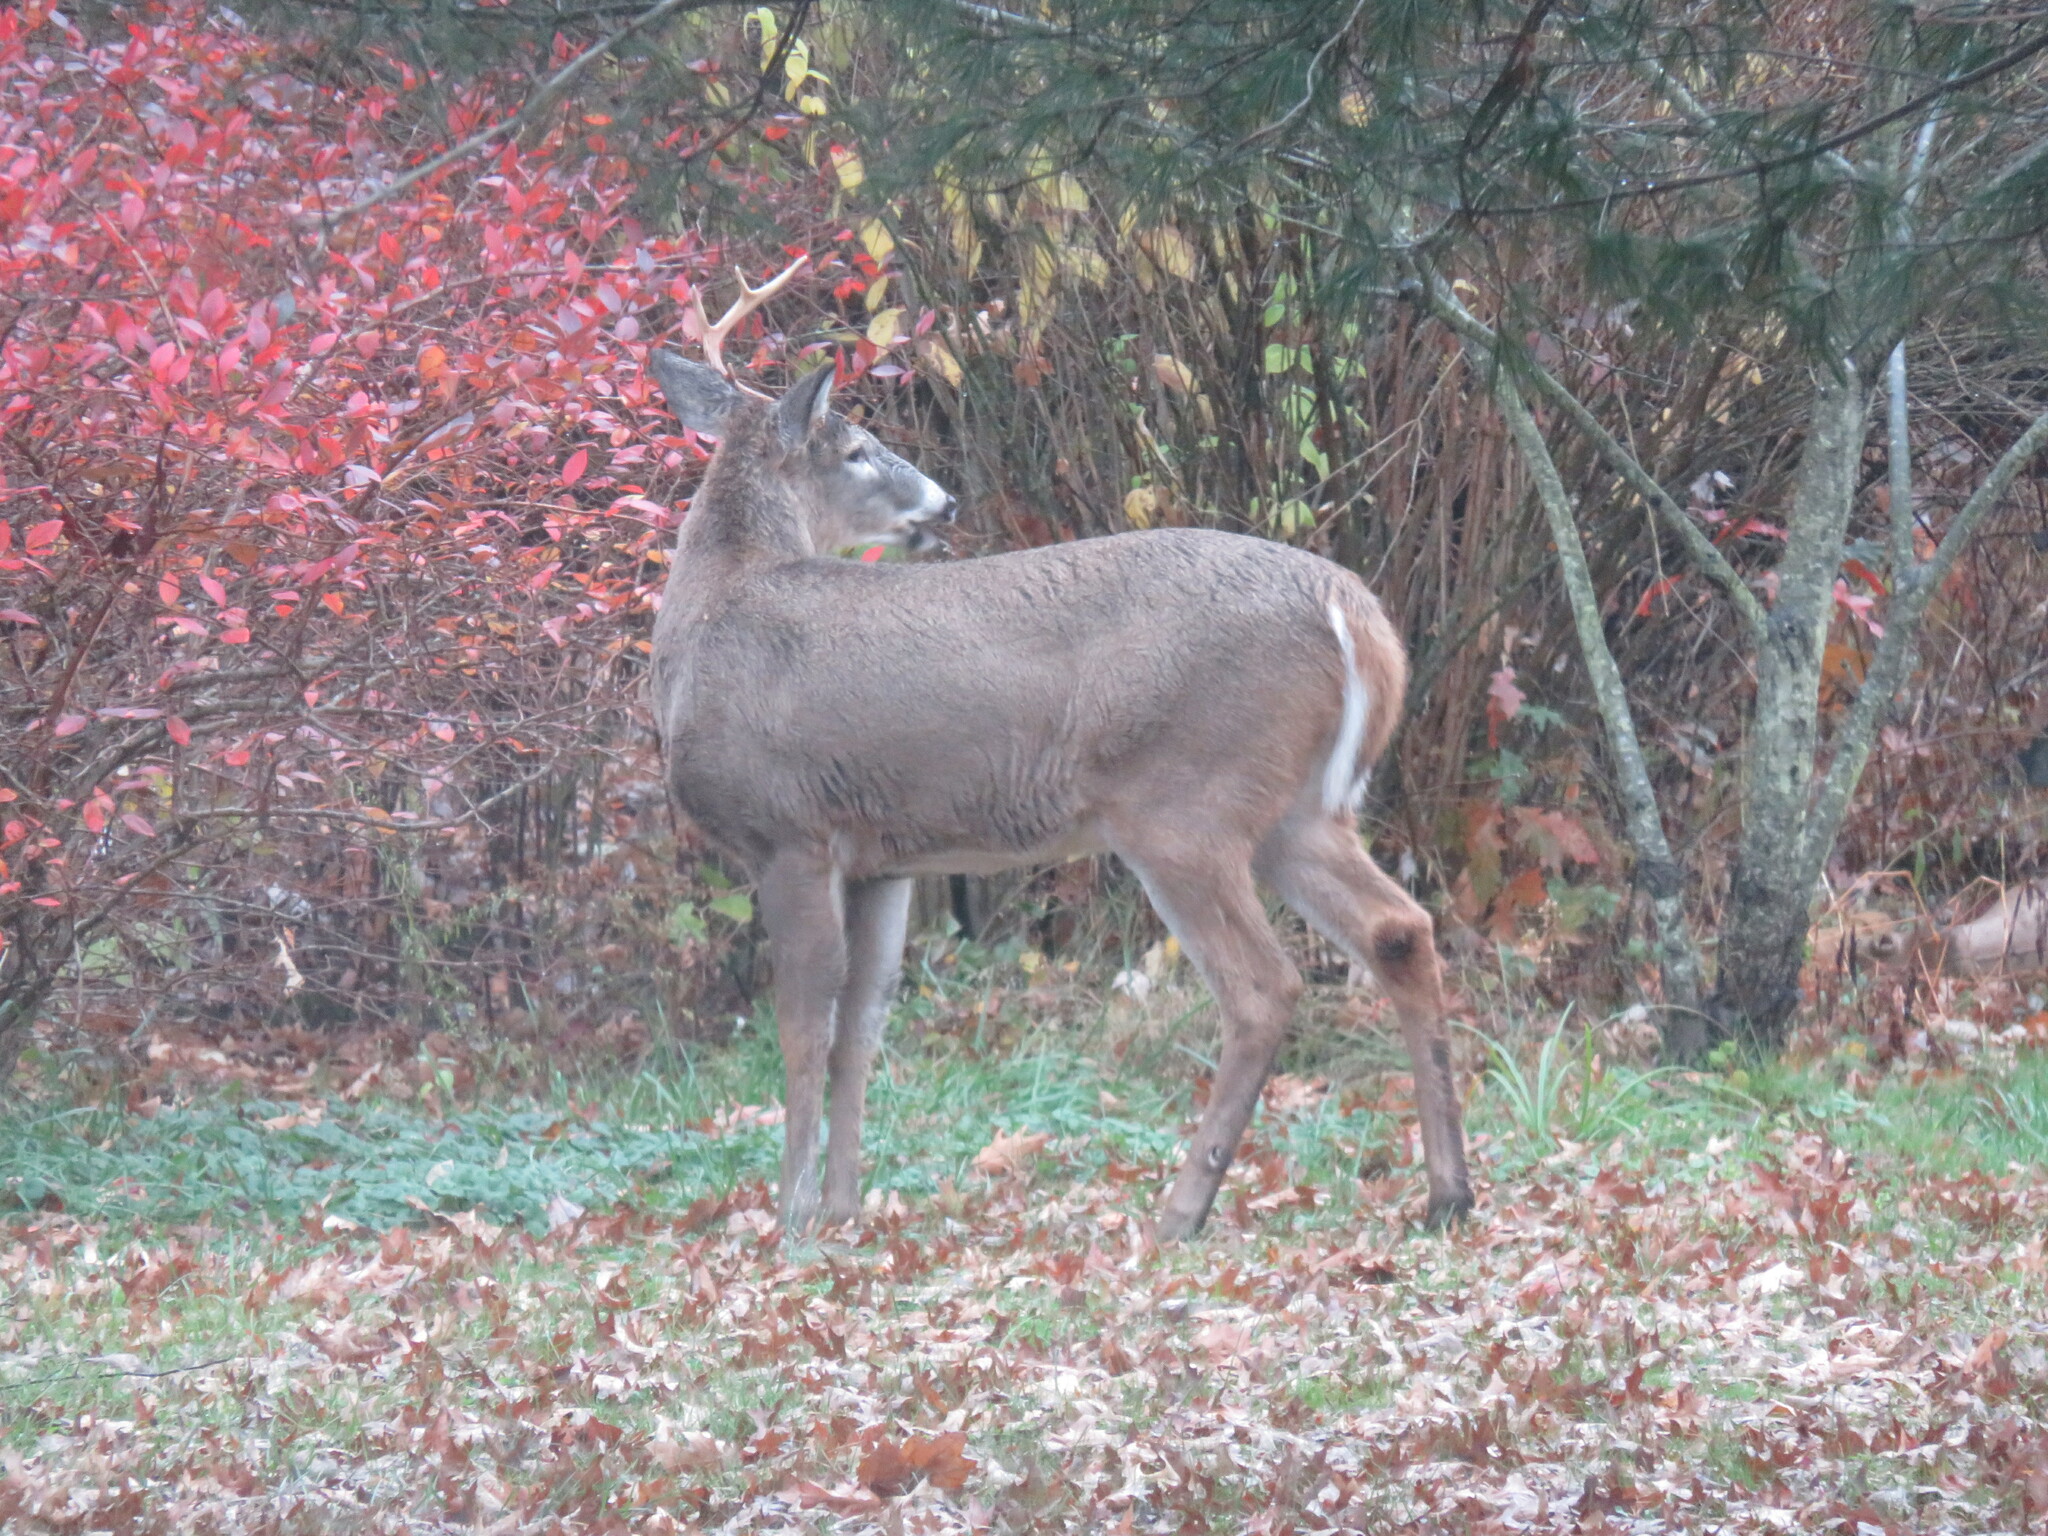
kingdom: Animalia
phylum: Chordata
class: Mammalia
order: Artiodactyla
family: Cervidae
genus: Odocoileus
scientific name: Odocoileus virginianus
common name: White-tailed deer
